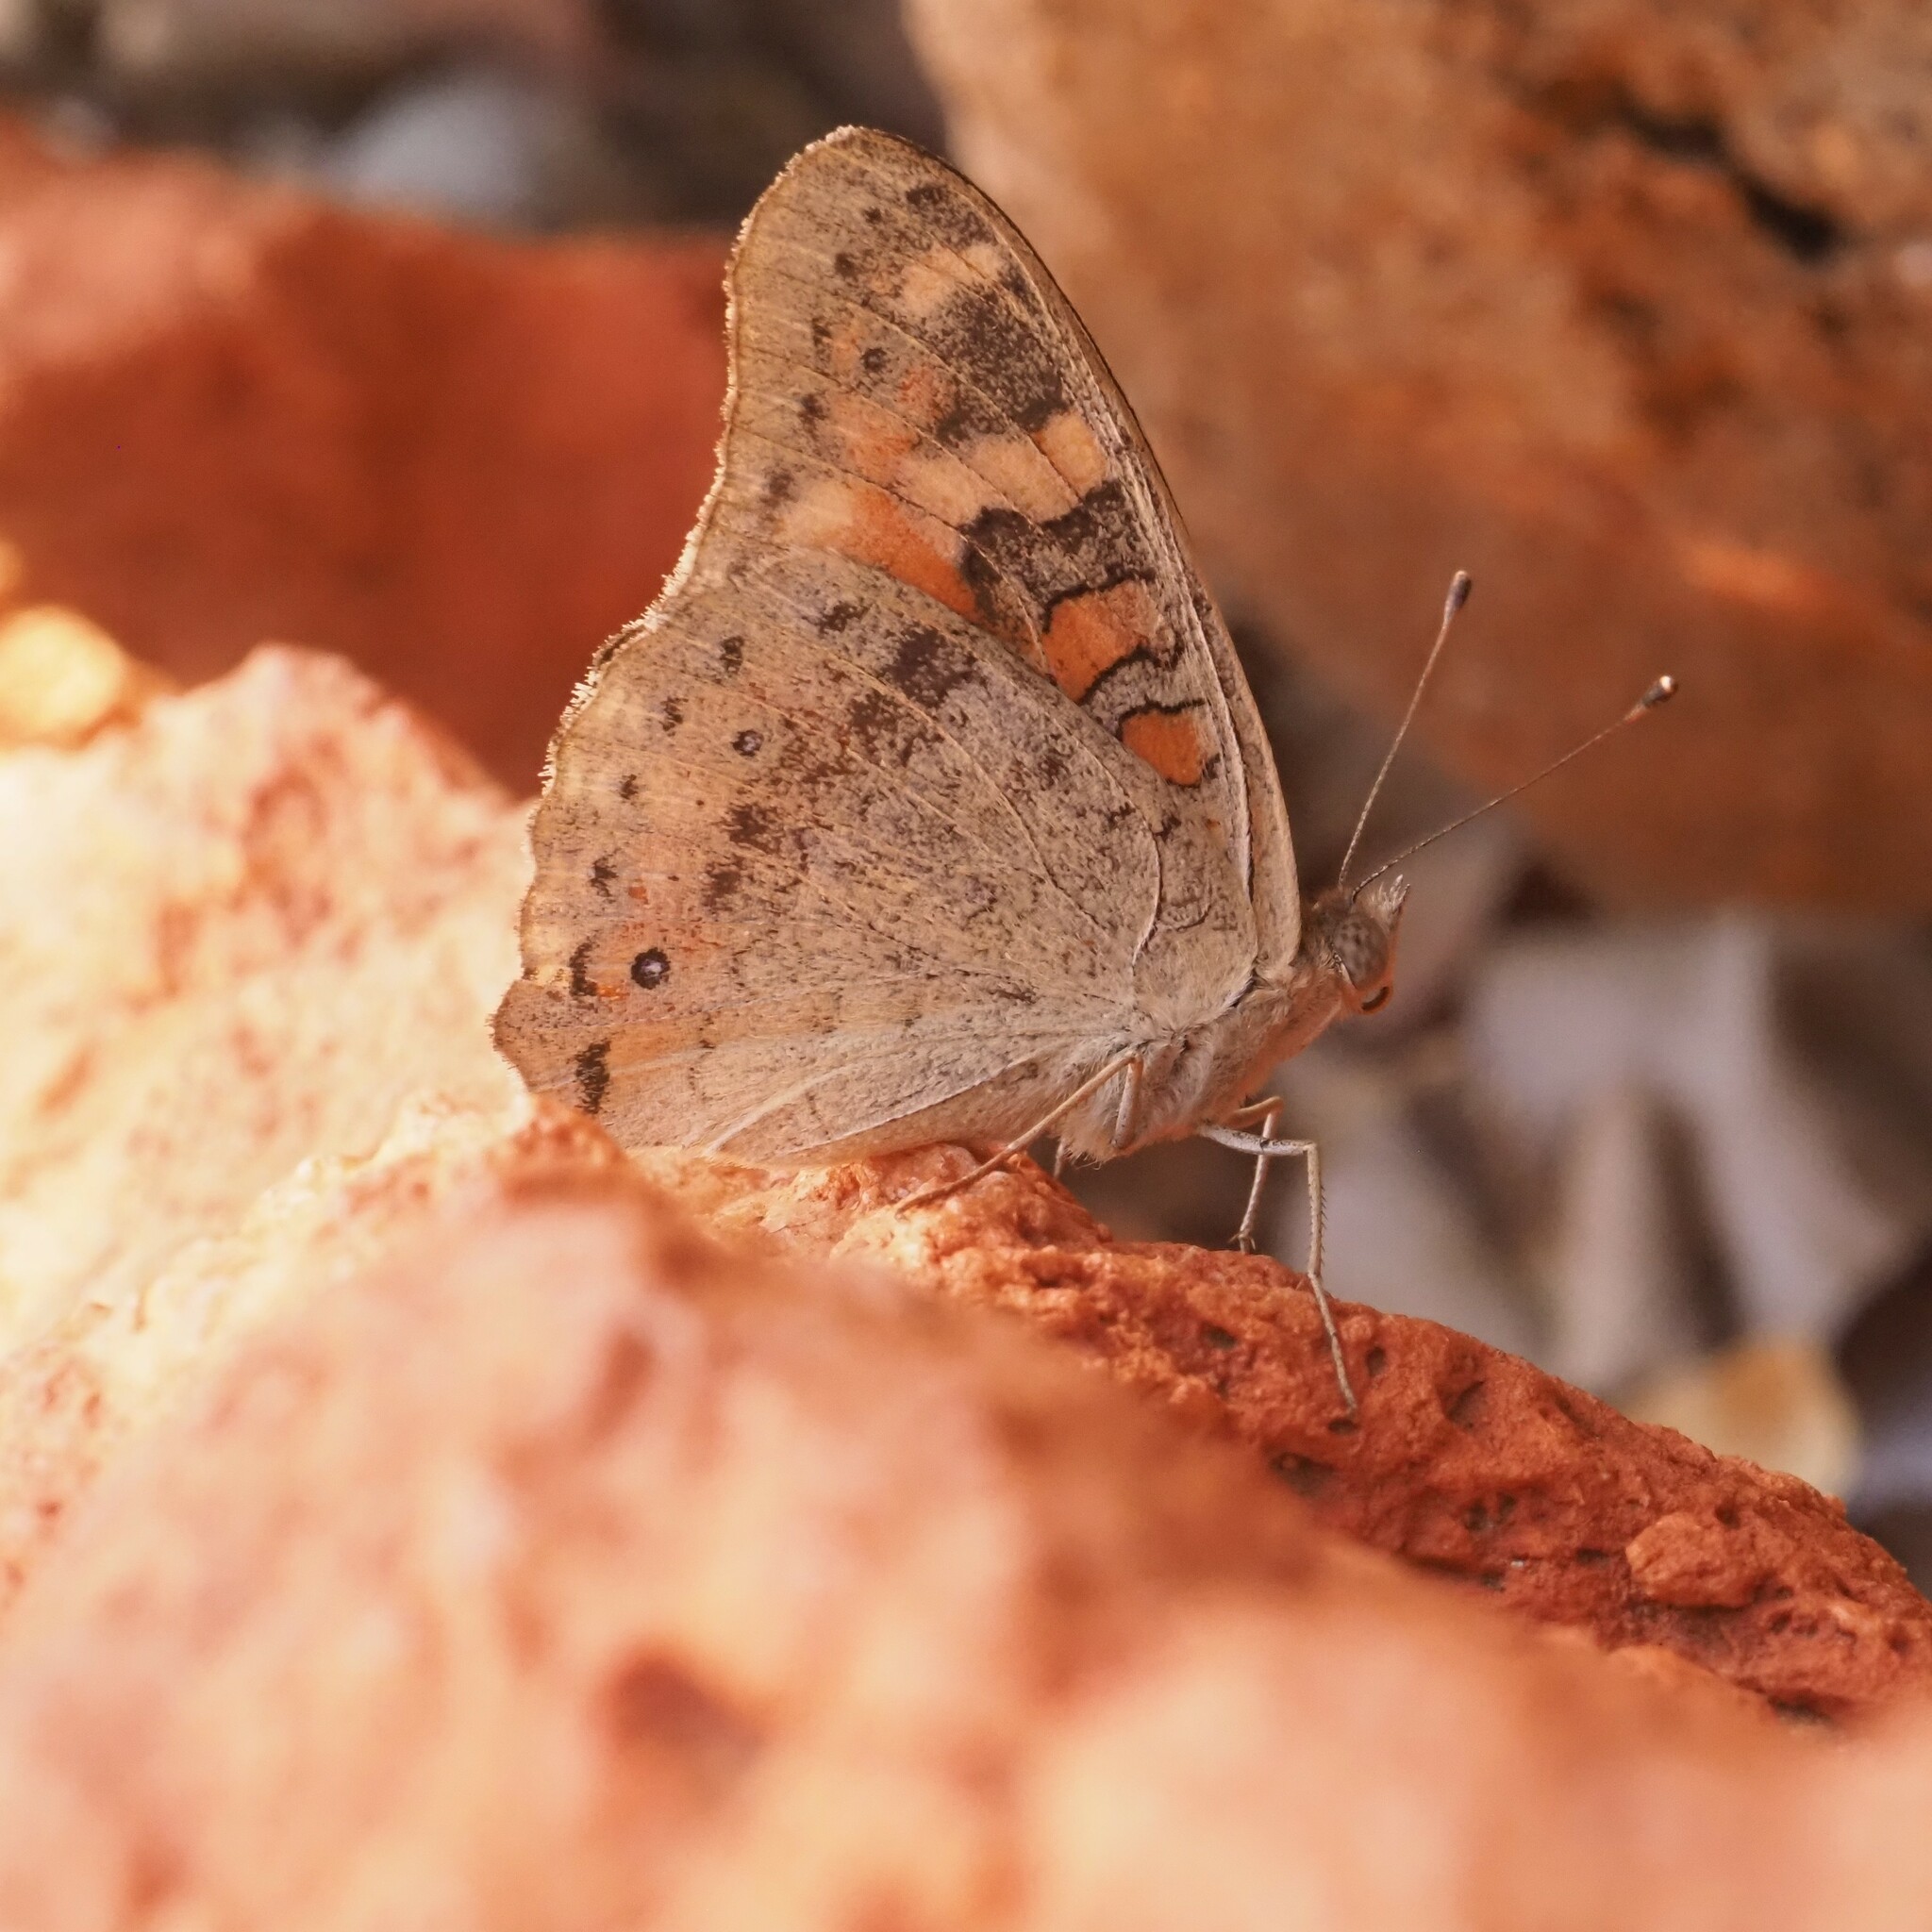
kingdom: Animalia
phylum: Arthropoda
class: Insecta
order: Lepidoptera
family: Nymphalidae
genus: Junonia
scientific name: Junonia villida
